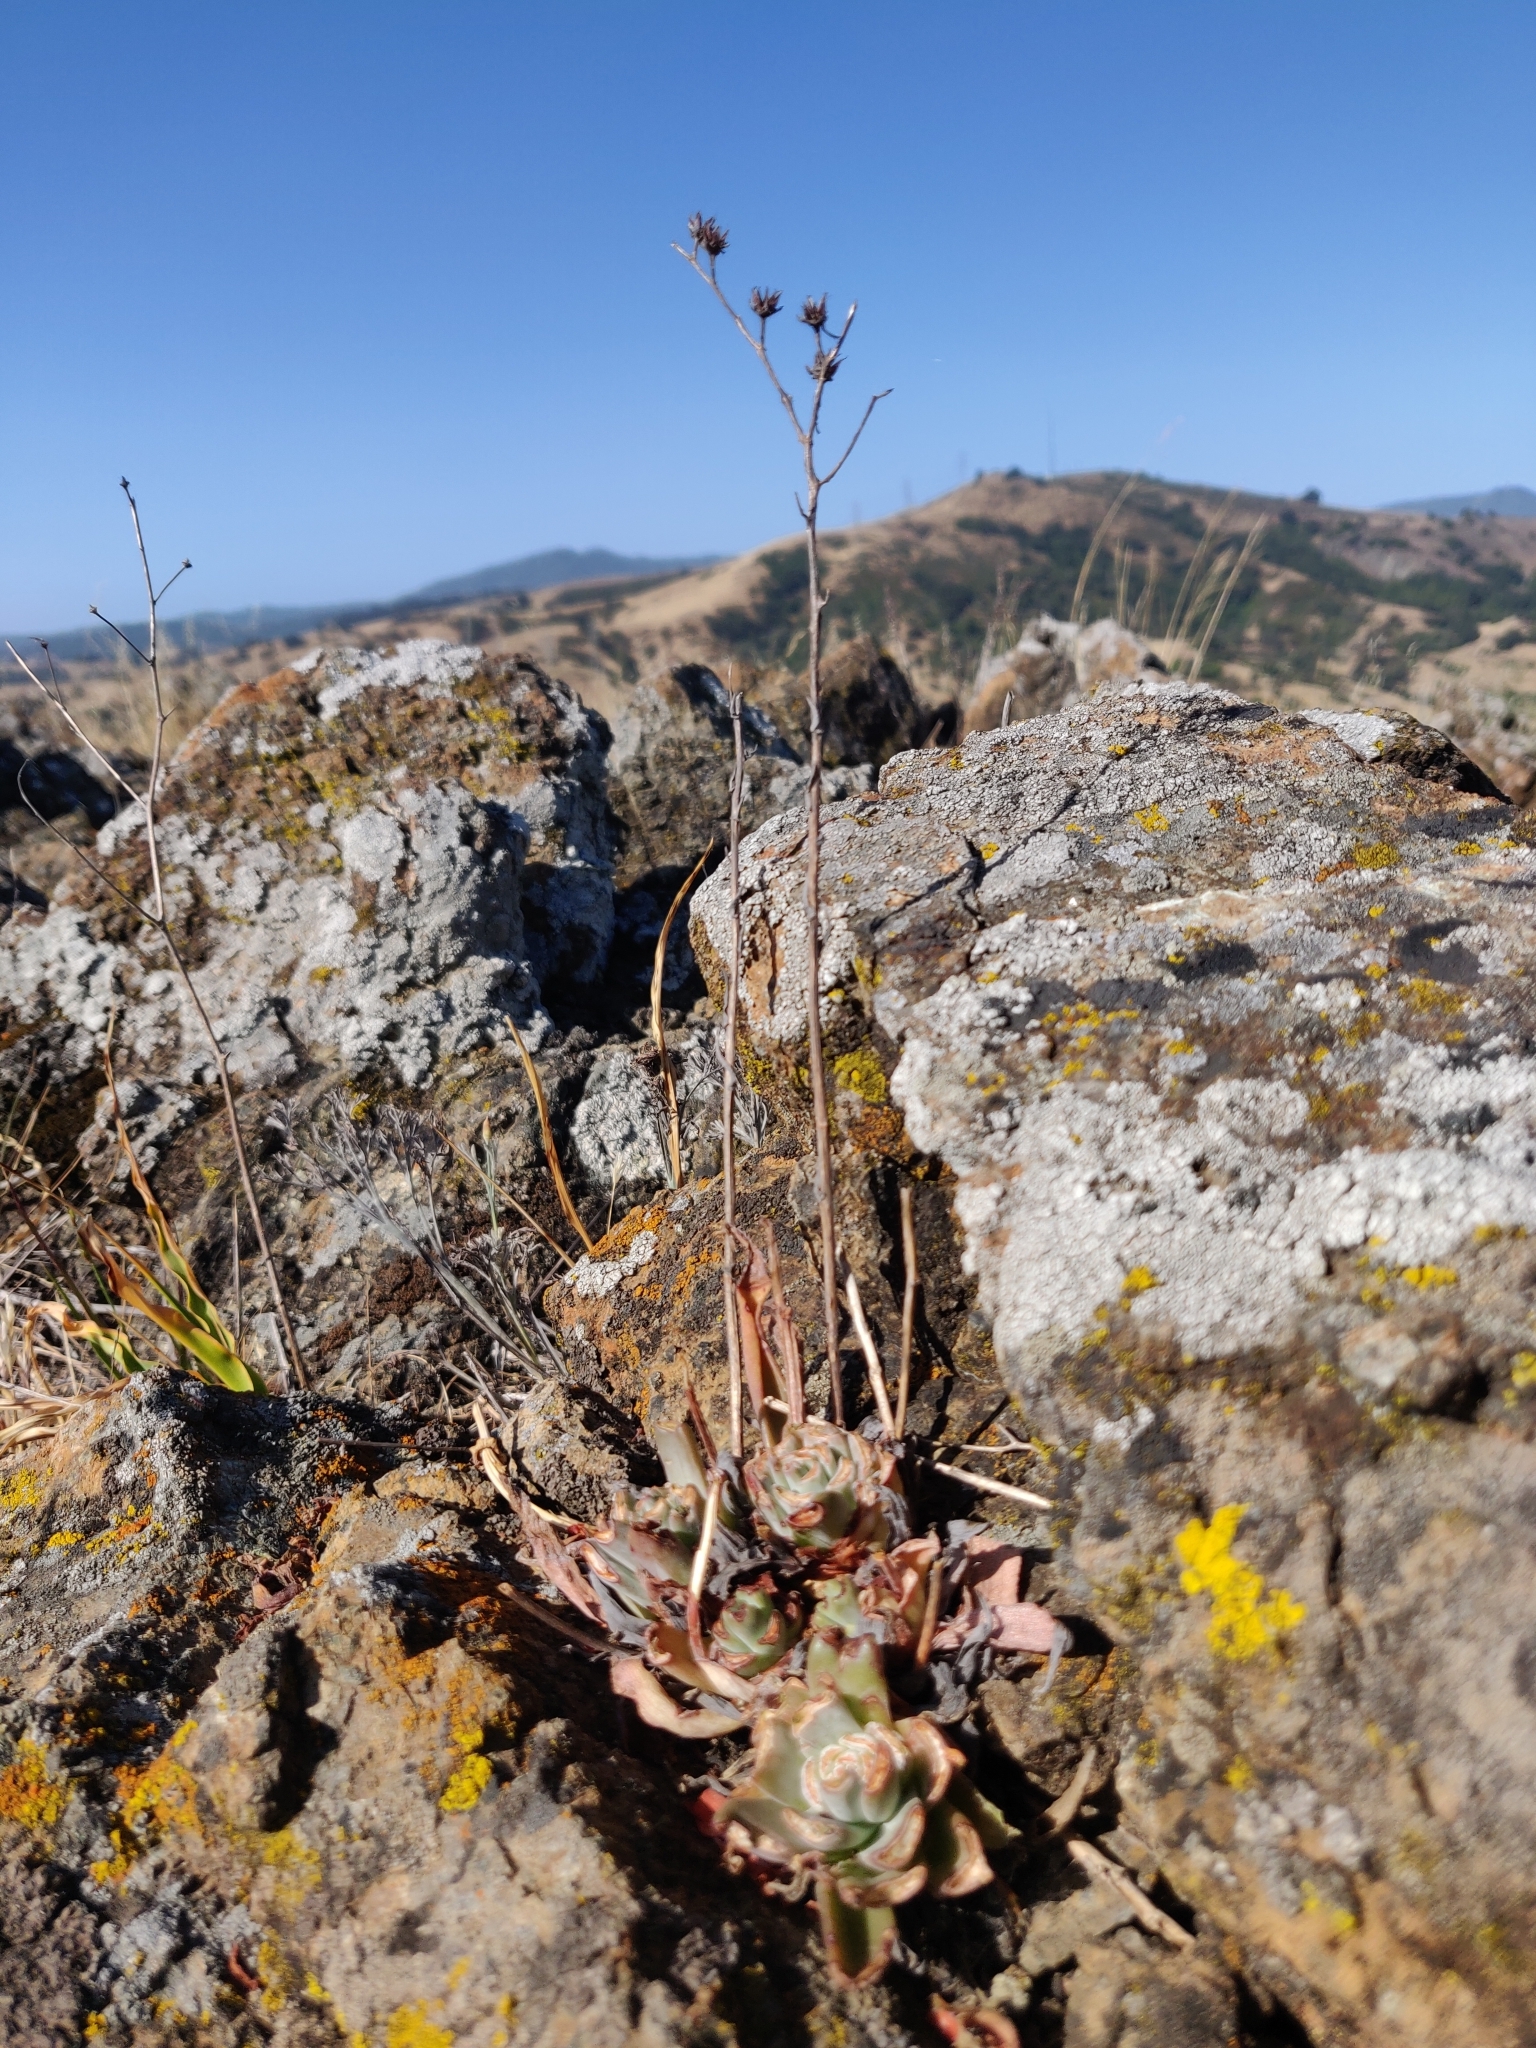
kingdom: Plantae
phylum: Tracheophyta
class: Magnoliopsida
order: Saxifragales
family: Crassulaceae
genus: Dudleya
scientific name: Dudleya abramsii
